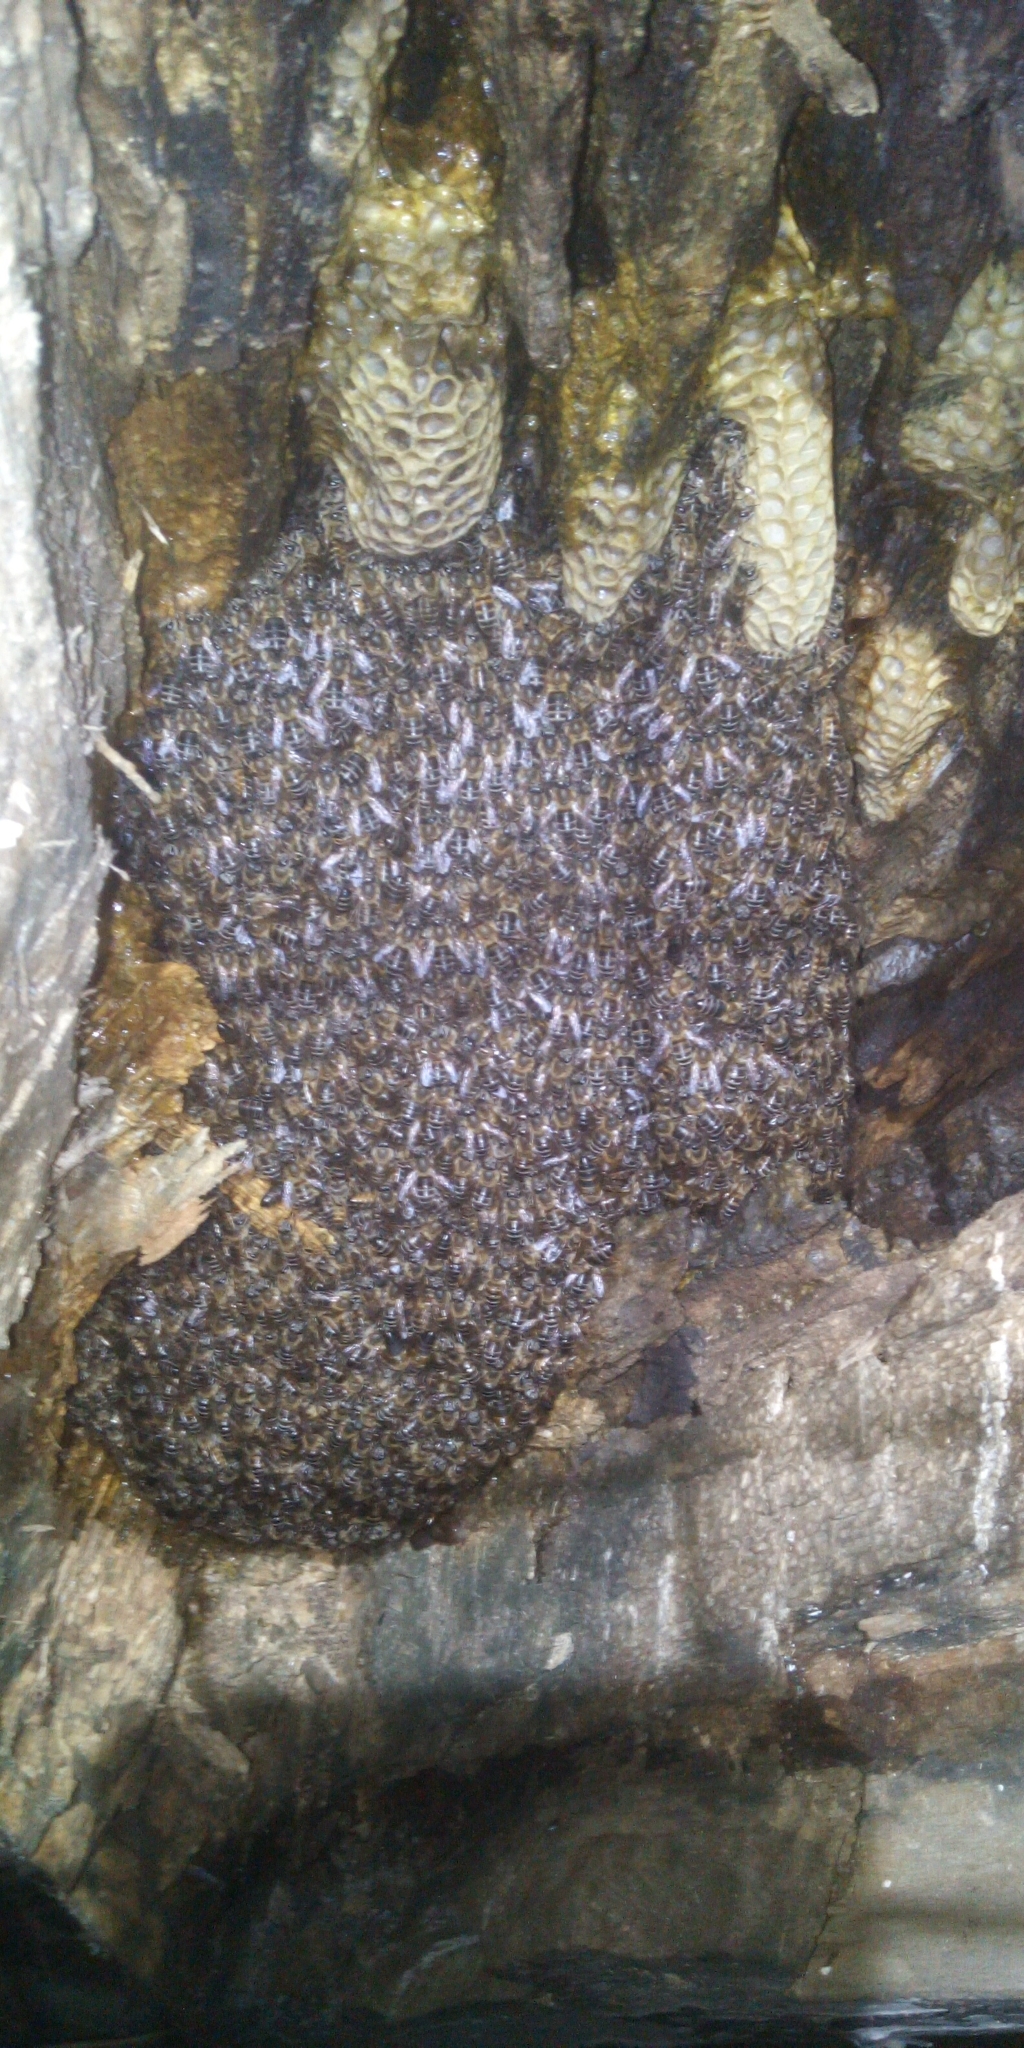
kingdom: Animalia
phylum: Arthropoda
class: Insecta
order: Hymenoptera
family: Apidae
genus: Apis
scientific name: Apis mellifera
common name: Honey bee
